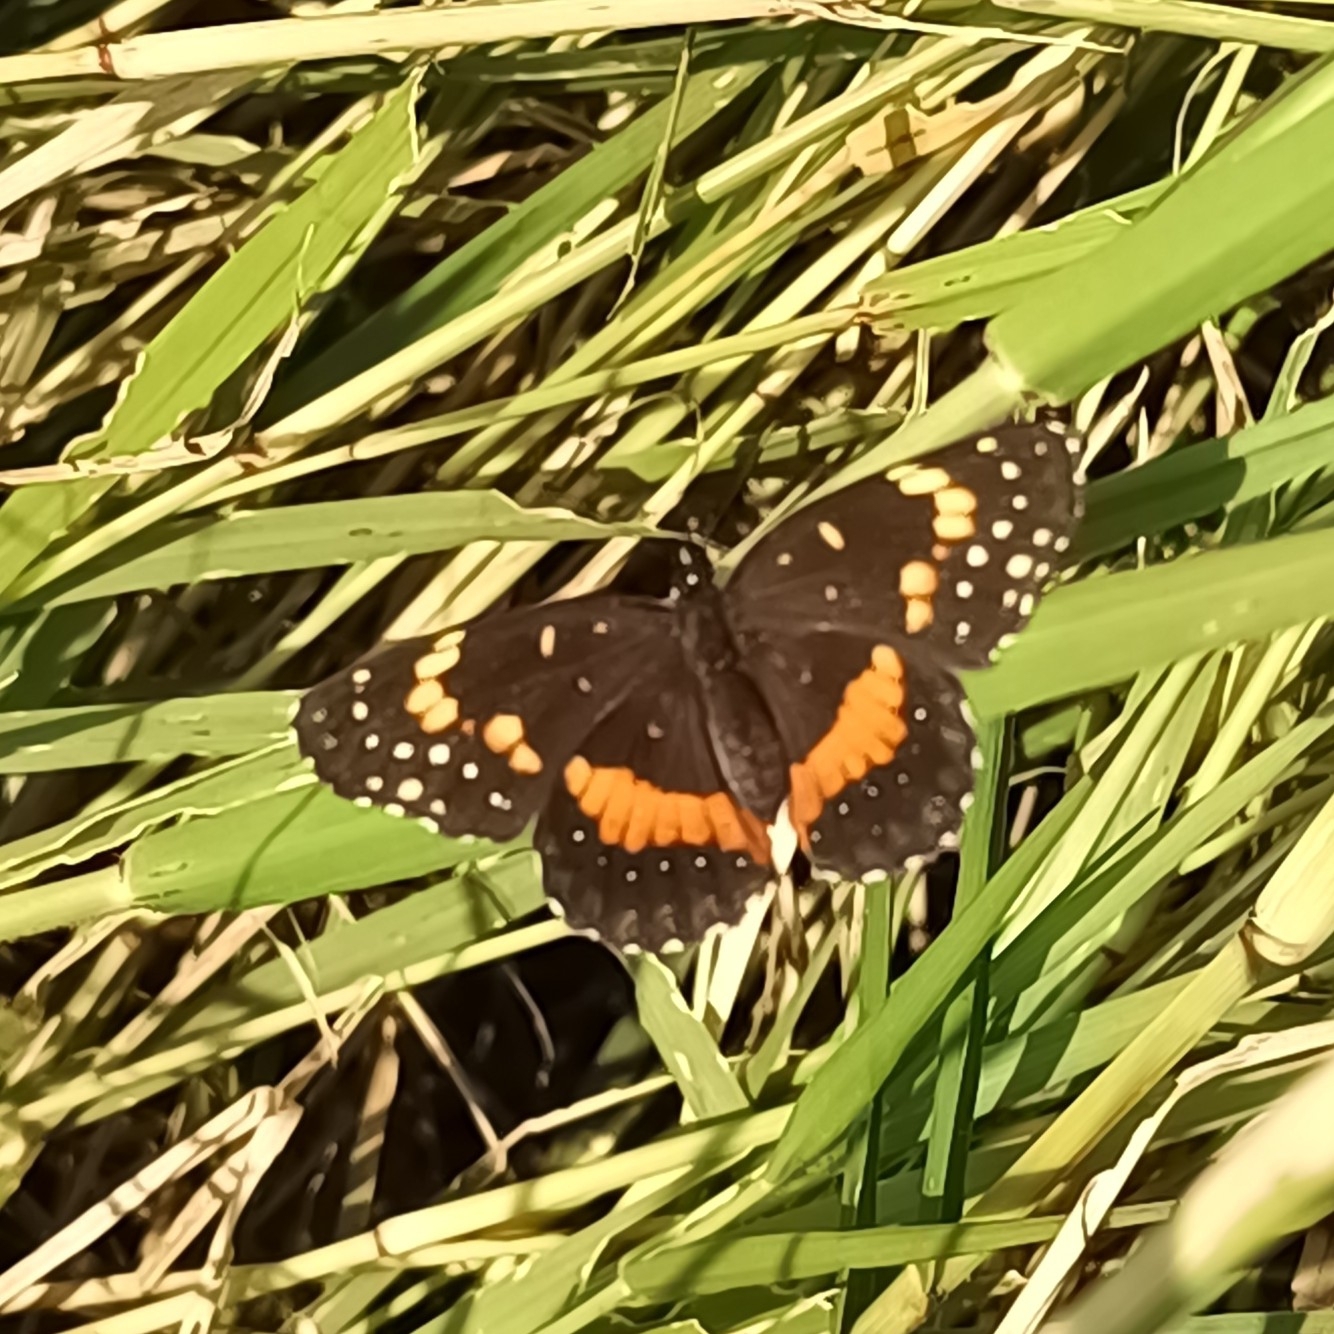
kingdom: Animalia
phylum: Arthropoda
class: Insecta
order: Lepidoptera
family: Nymphalidae
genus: Chlosyne
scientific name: Chlosyne lacinia
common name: Bordered patch
